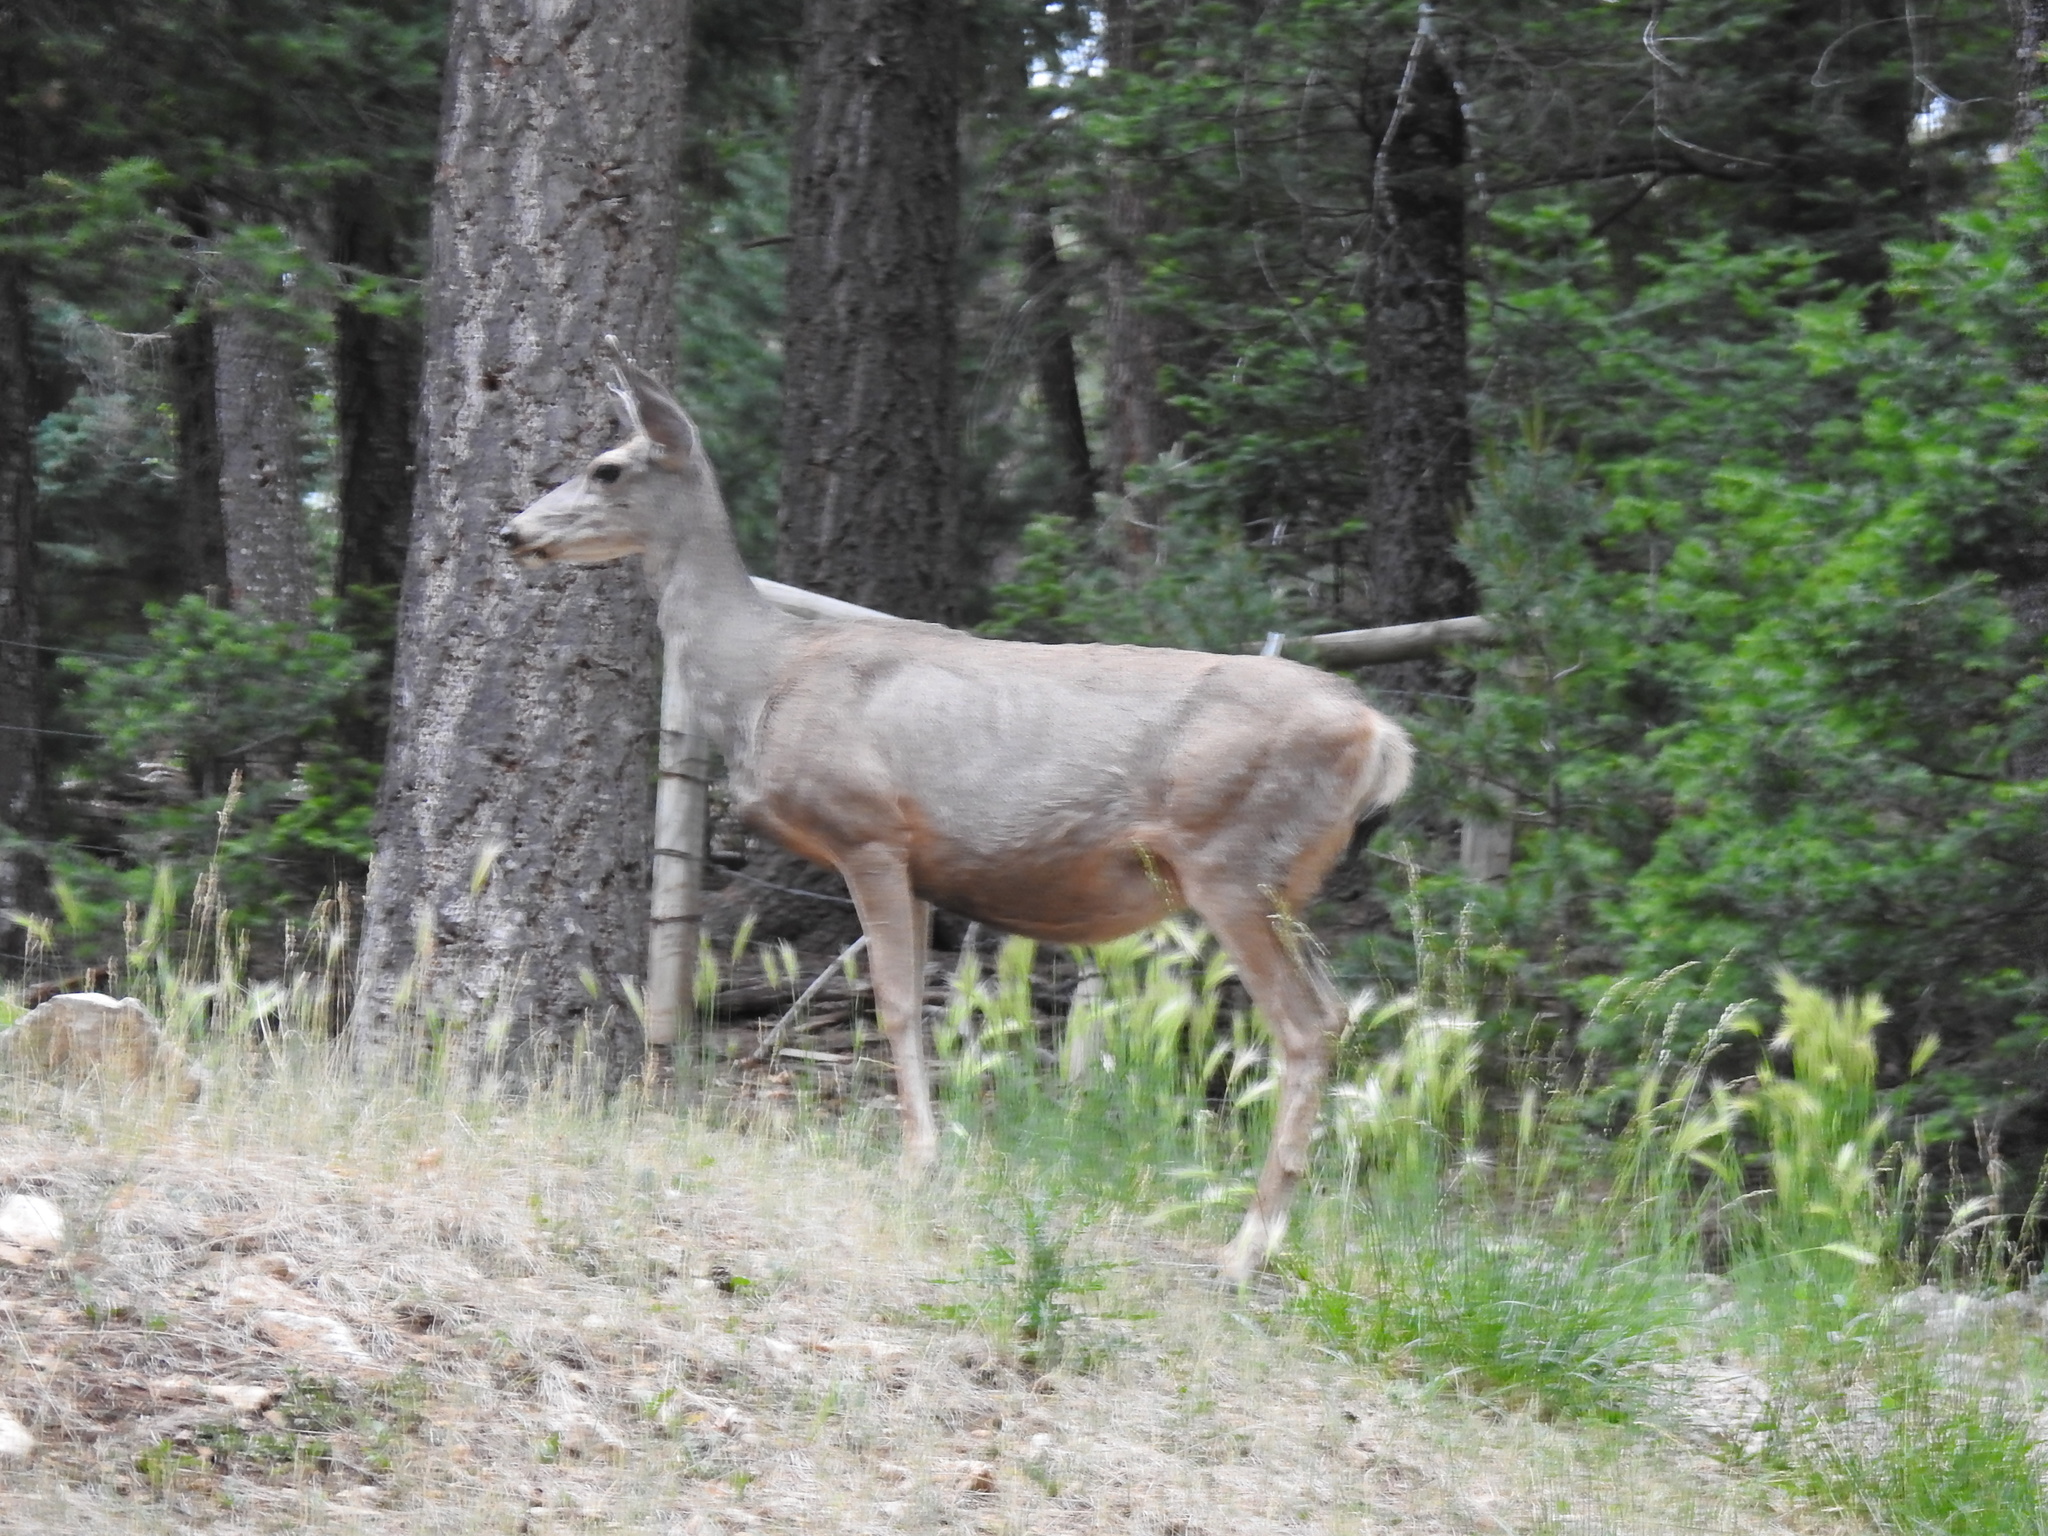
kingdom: Animalia
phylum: Chordata
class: Mammalia
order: Artiodactyla
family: Cervidae
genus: Odocoileus
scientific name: Odocoileus hemionus
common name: Mule deer
